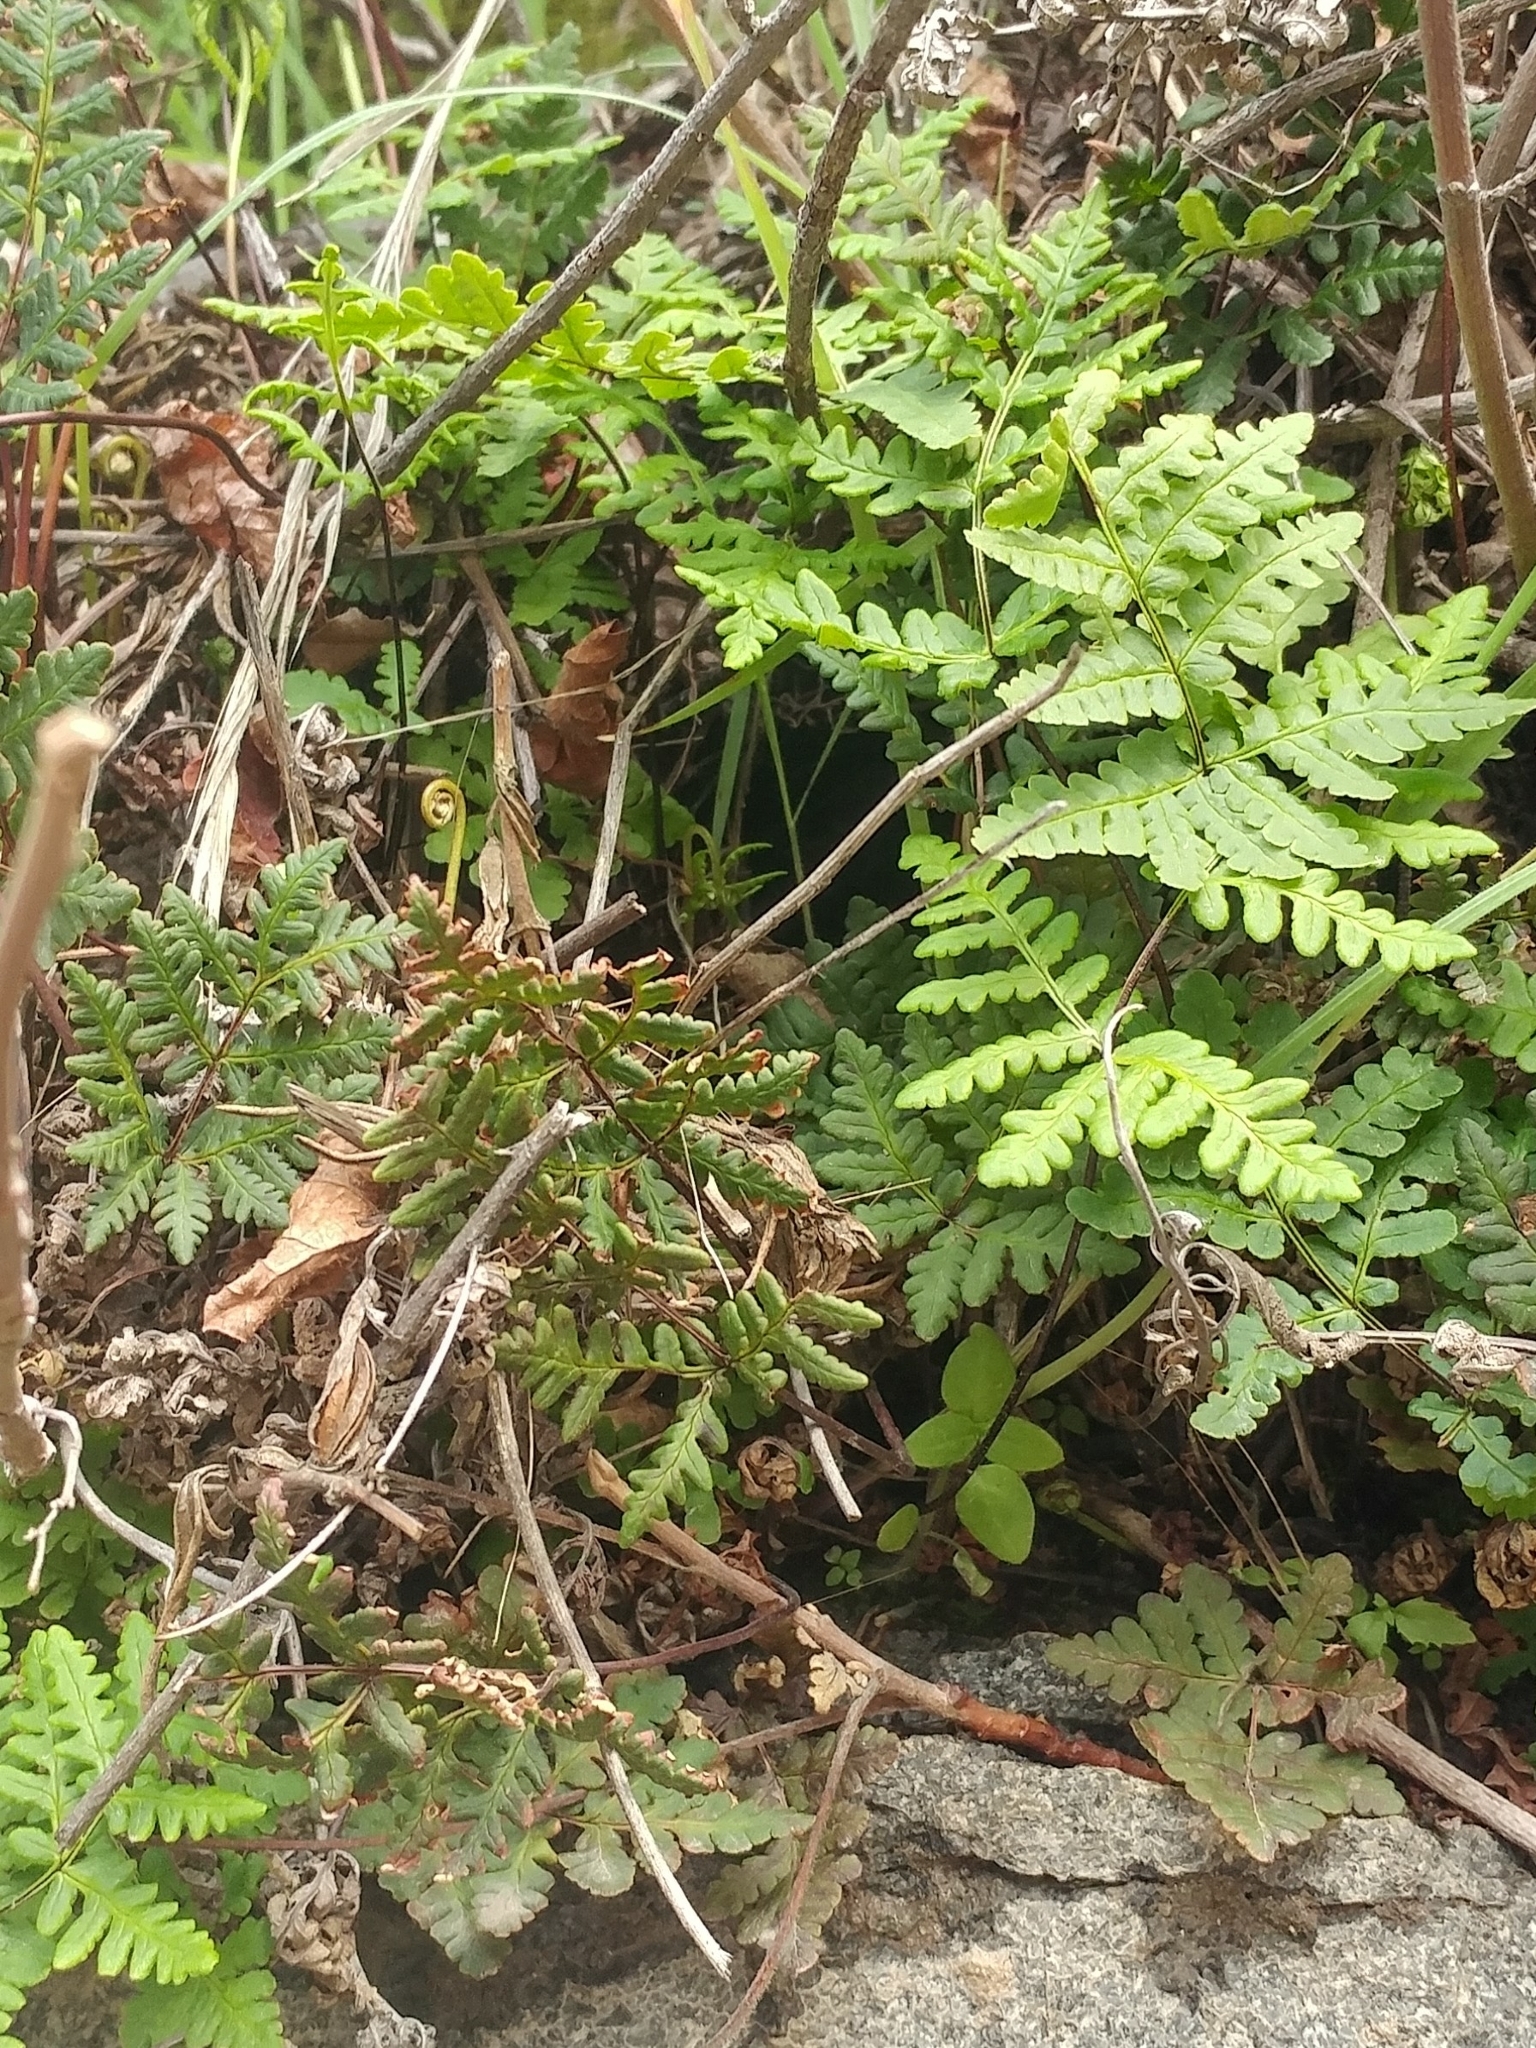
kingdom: Plantae
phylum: Tracheophyta
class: Polypodiopsida
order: Polypodiales
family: Pteridaceae
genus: Pentagramma
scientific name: Pentagramma triangularis
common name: Gold fern
